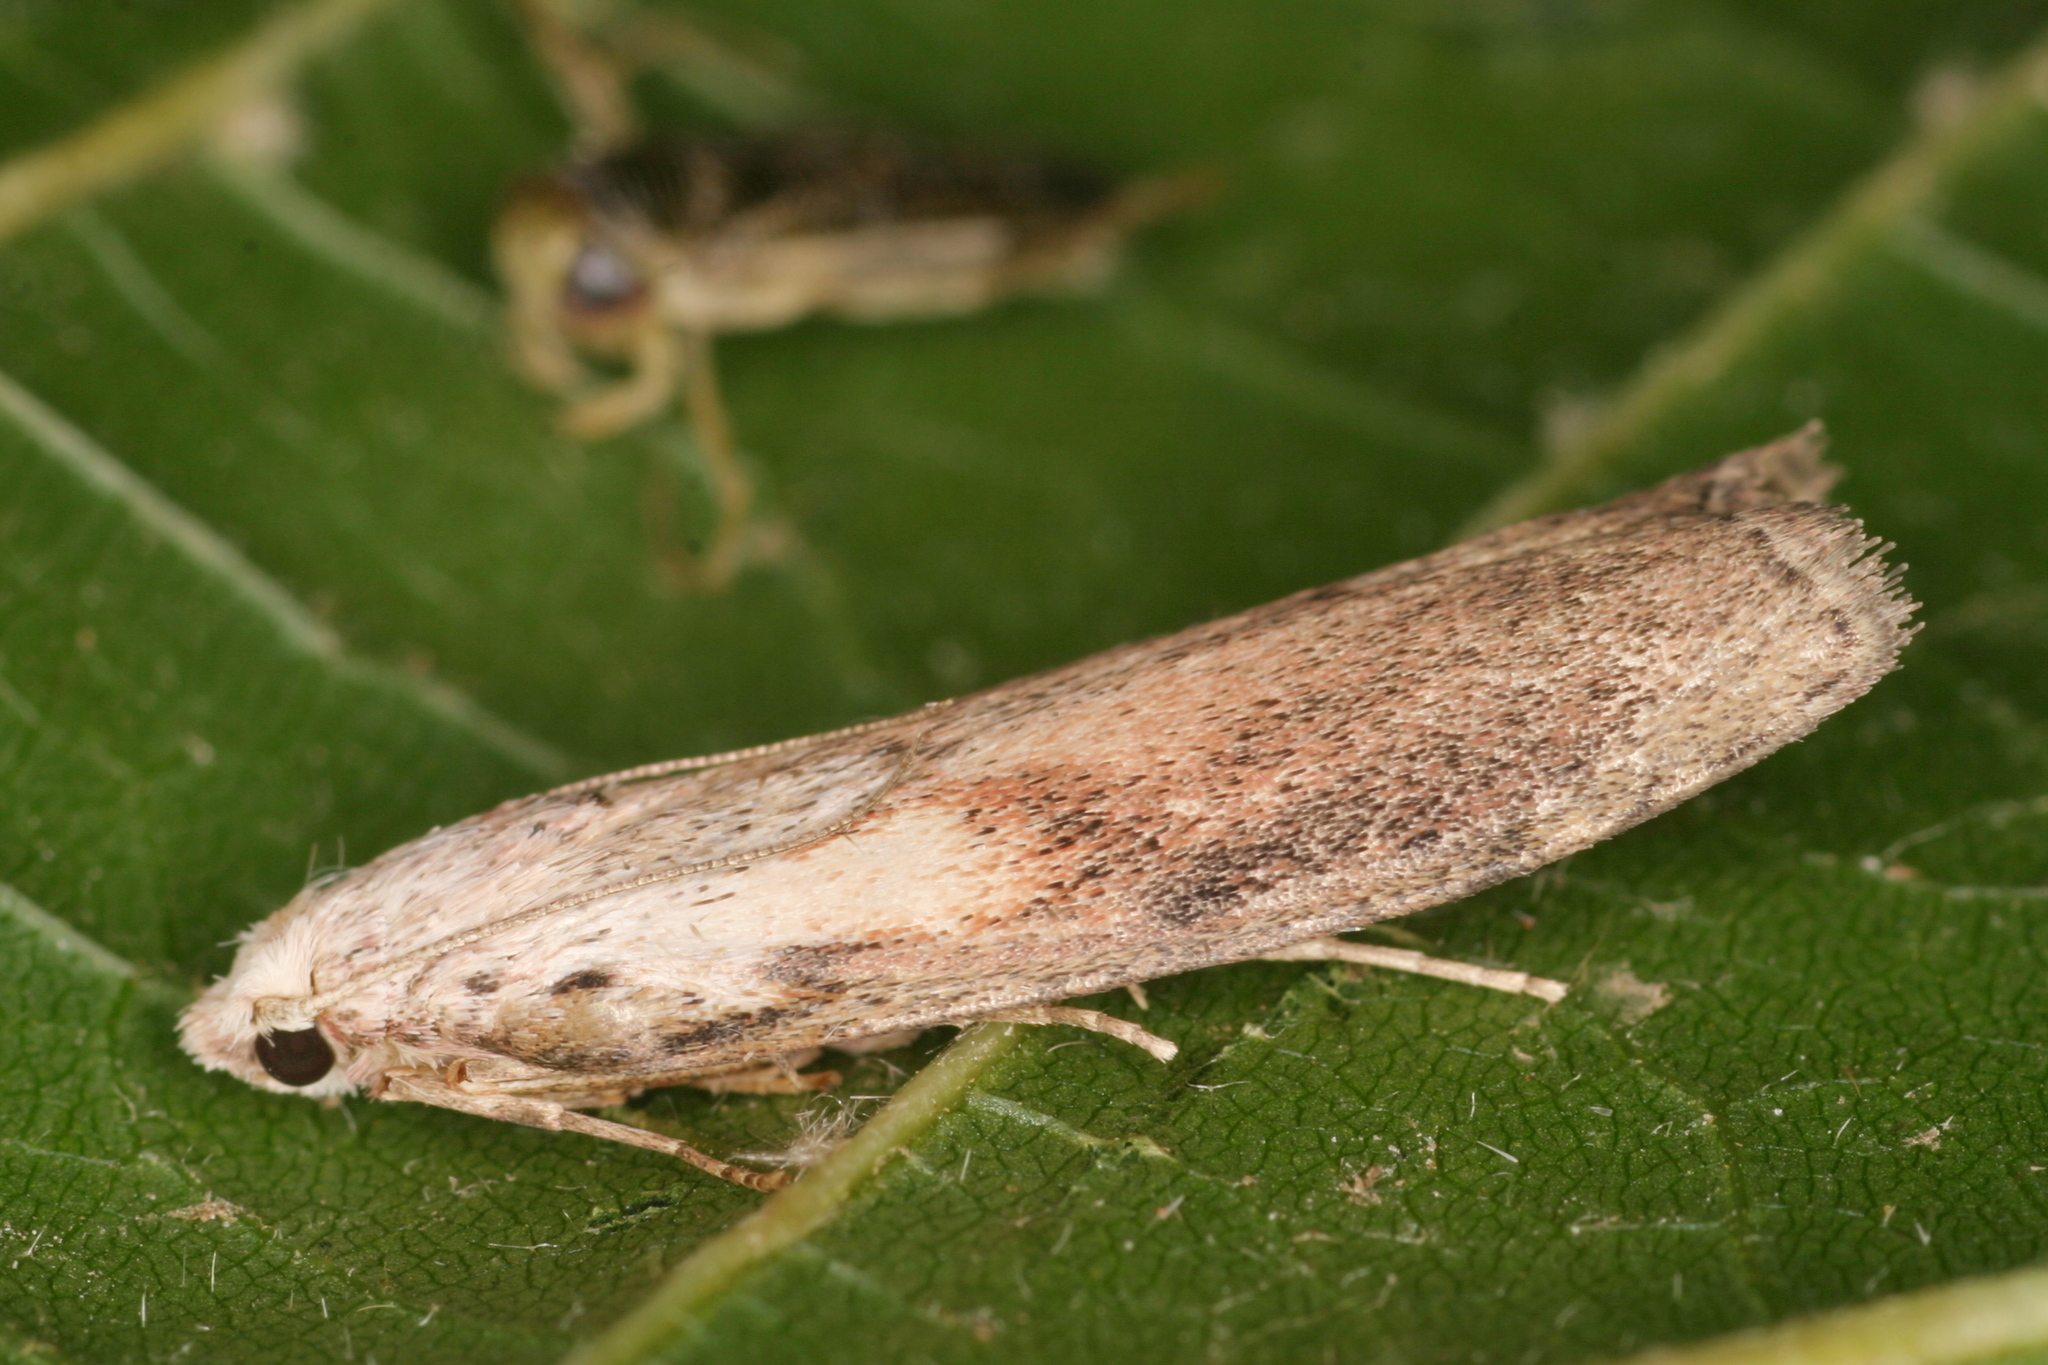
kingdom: Animalia
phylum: Arthropoda
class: Insecta
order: Lepidoptera
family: Pyralidae
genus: Aphomia
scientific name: Aphomia sociella
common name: Bee moth
